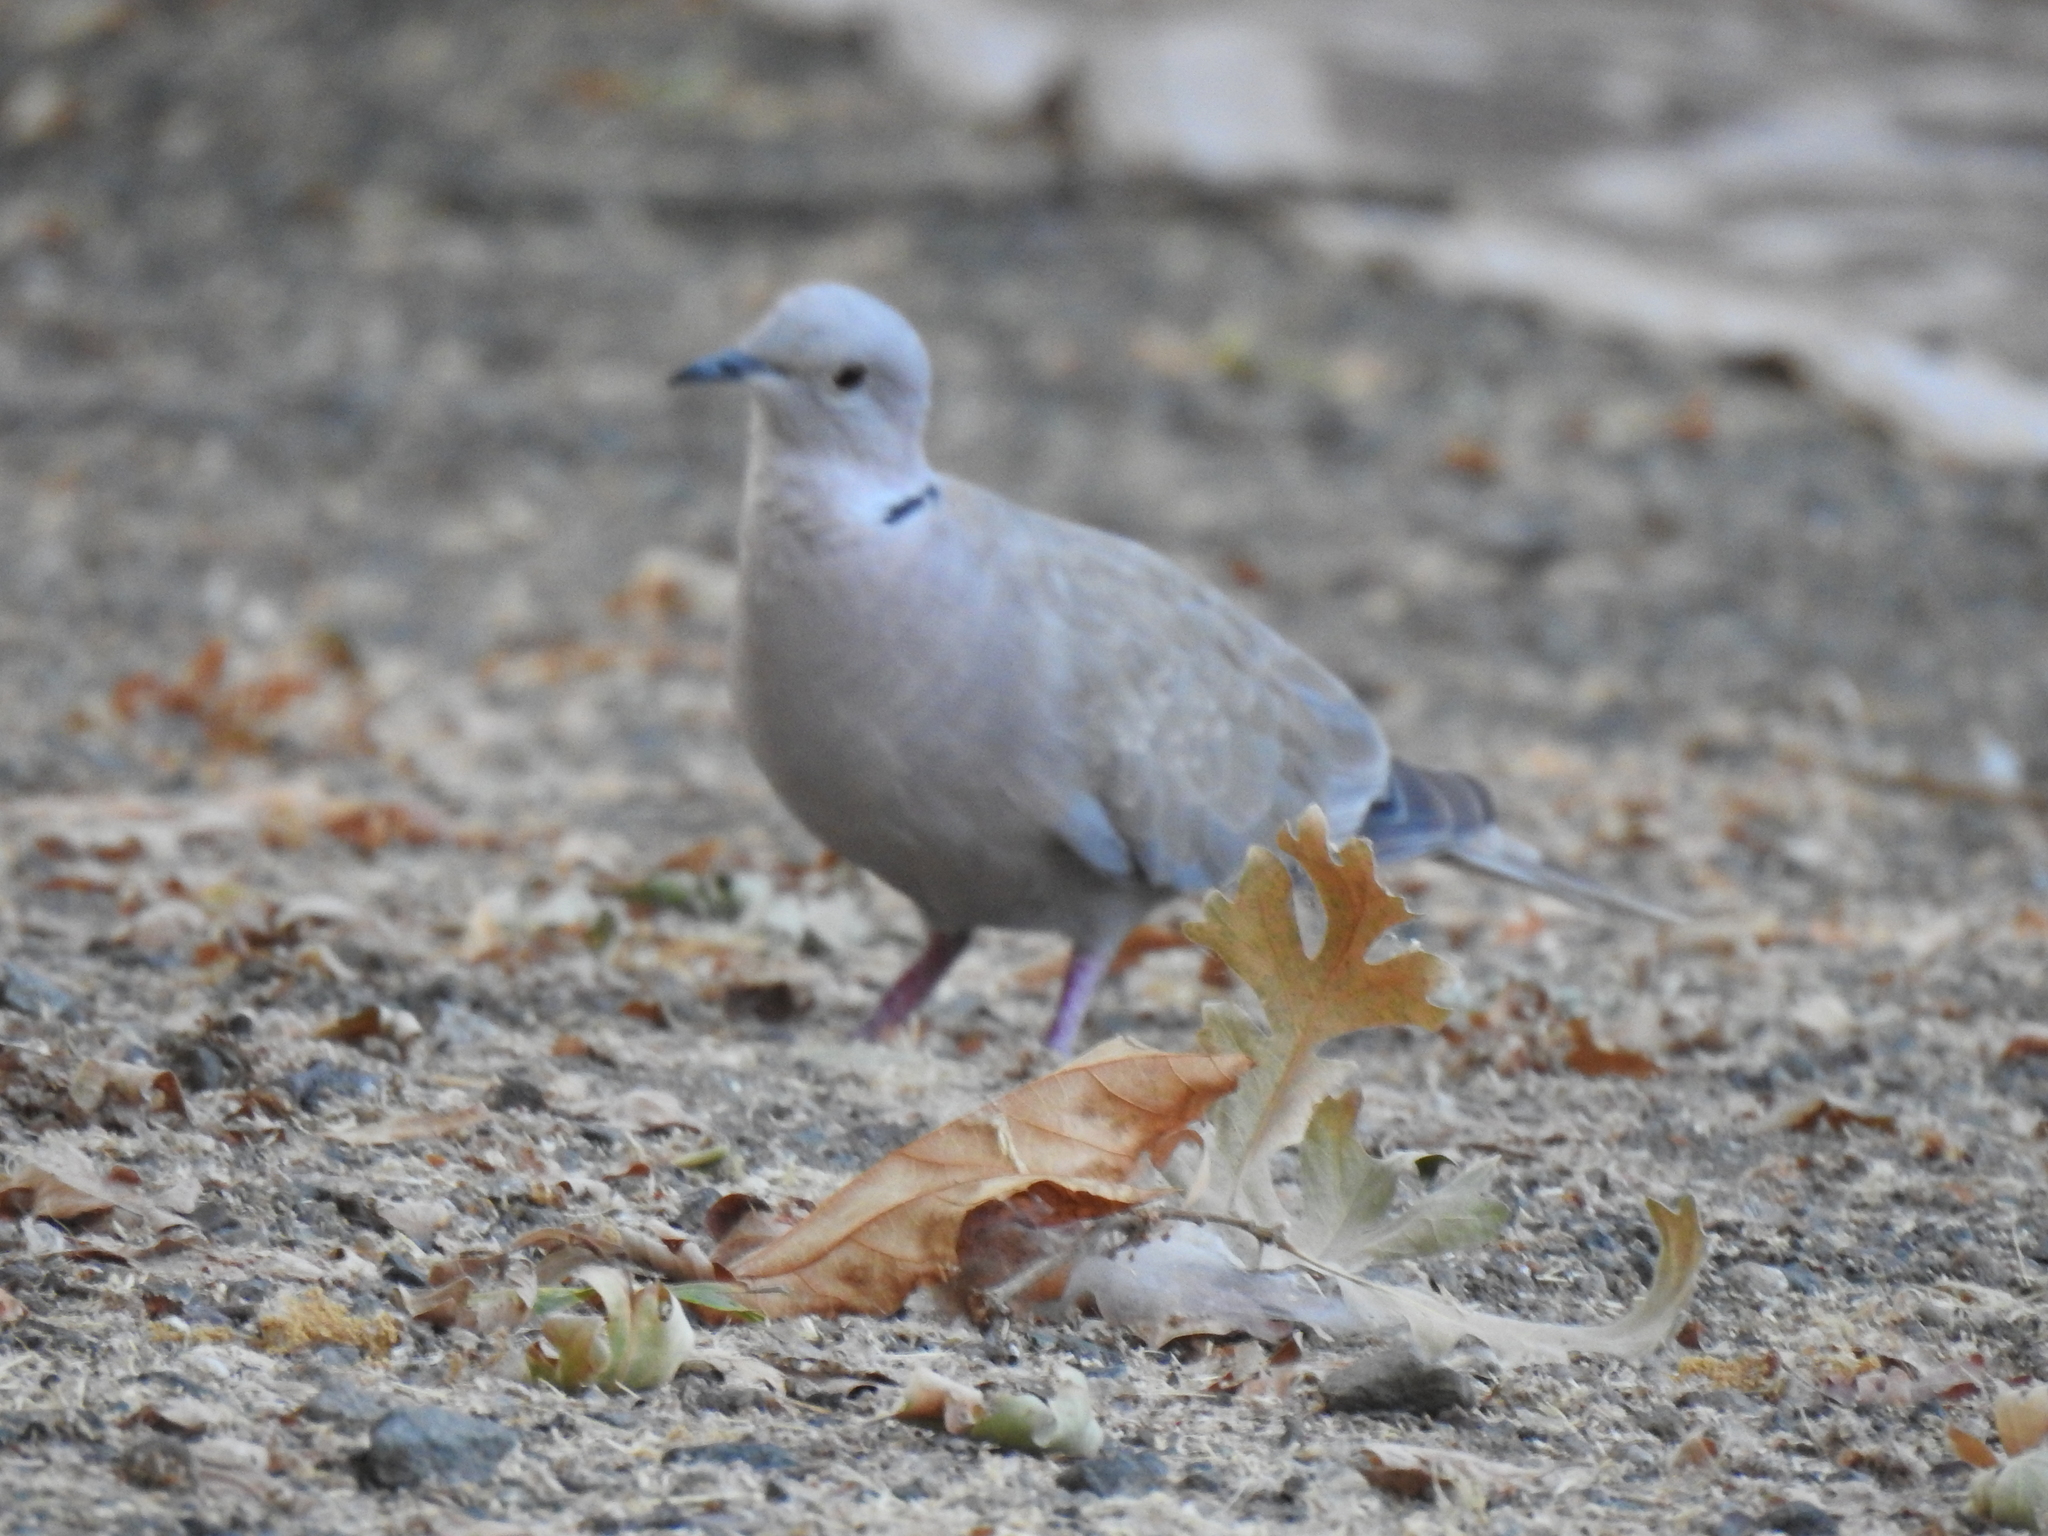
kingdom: Animalia
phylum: Chordata
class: Aves
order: Columbiformes
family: Columbidae
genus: Streptopelia
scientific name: Streptopelia decaocto
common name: Eurasian collared dove
